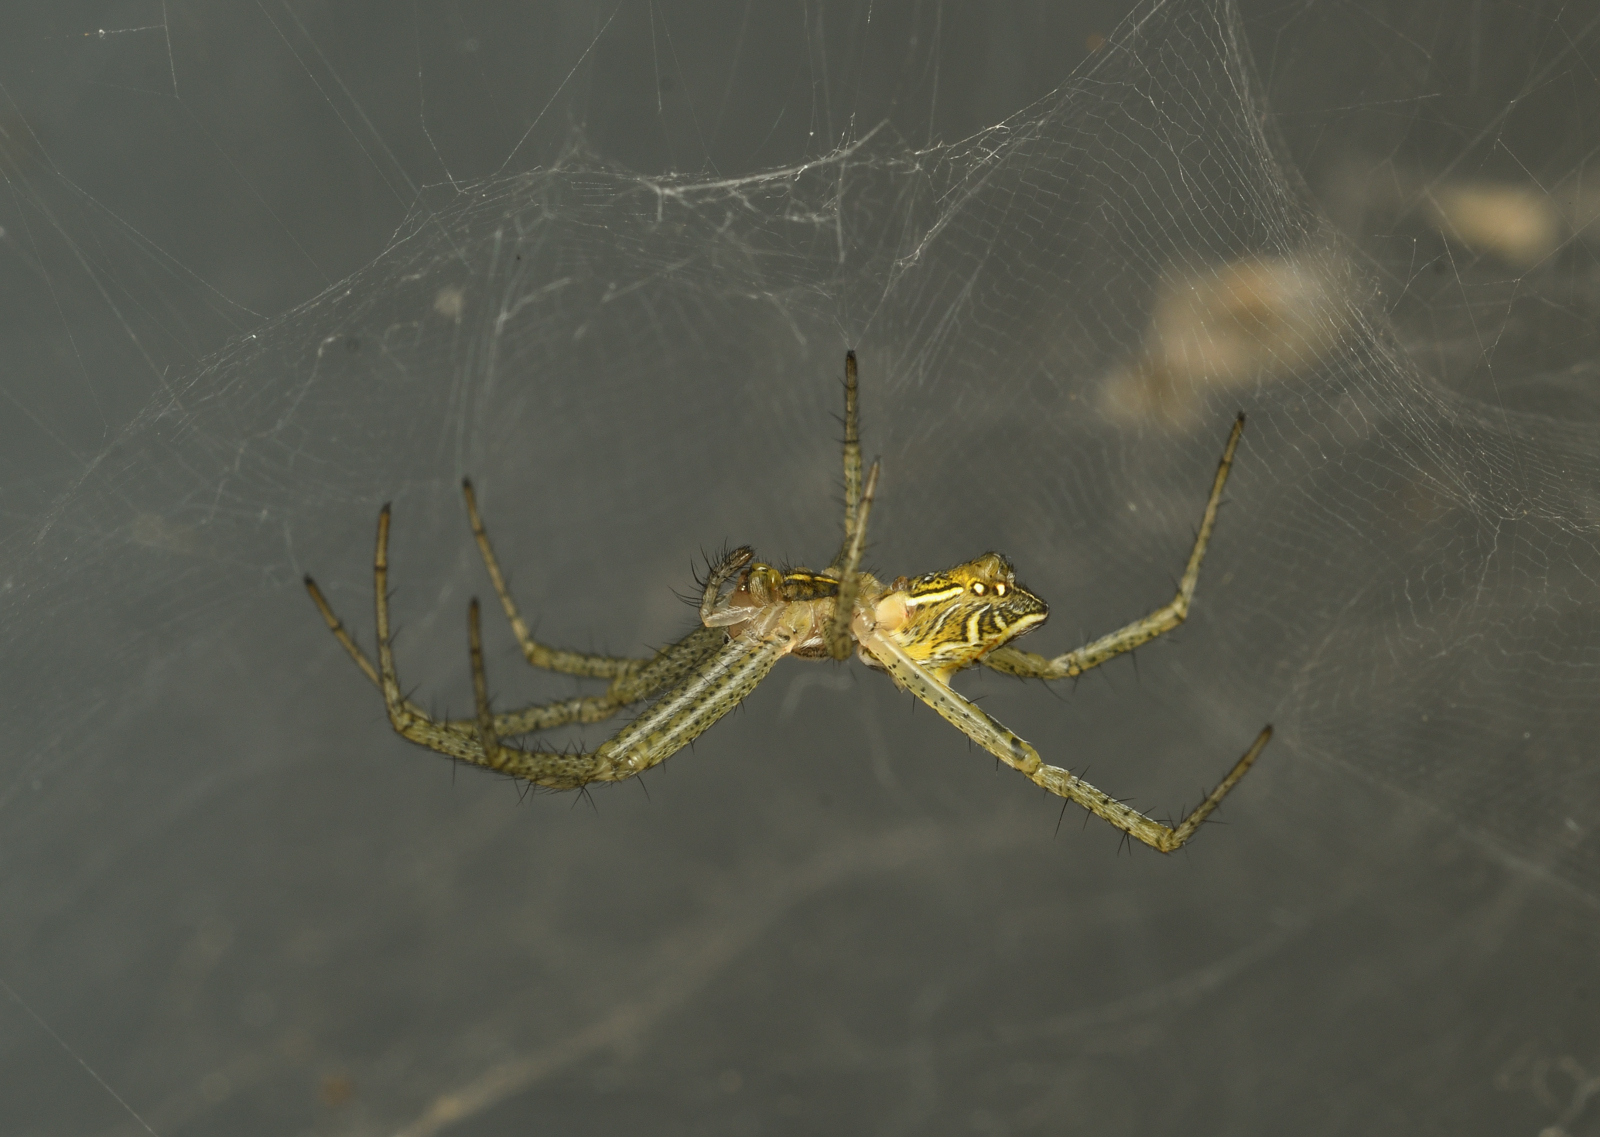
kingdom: Animalia
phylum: Arthropoda
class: Arachnida
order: Araneae
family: Araneidae
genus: Cyrtophora
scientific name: Cyrtophora cicatrosa
